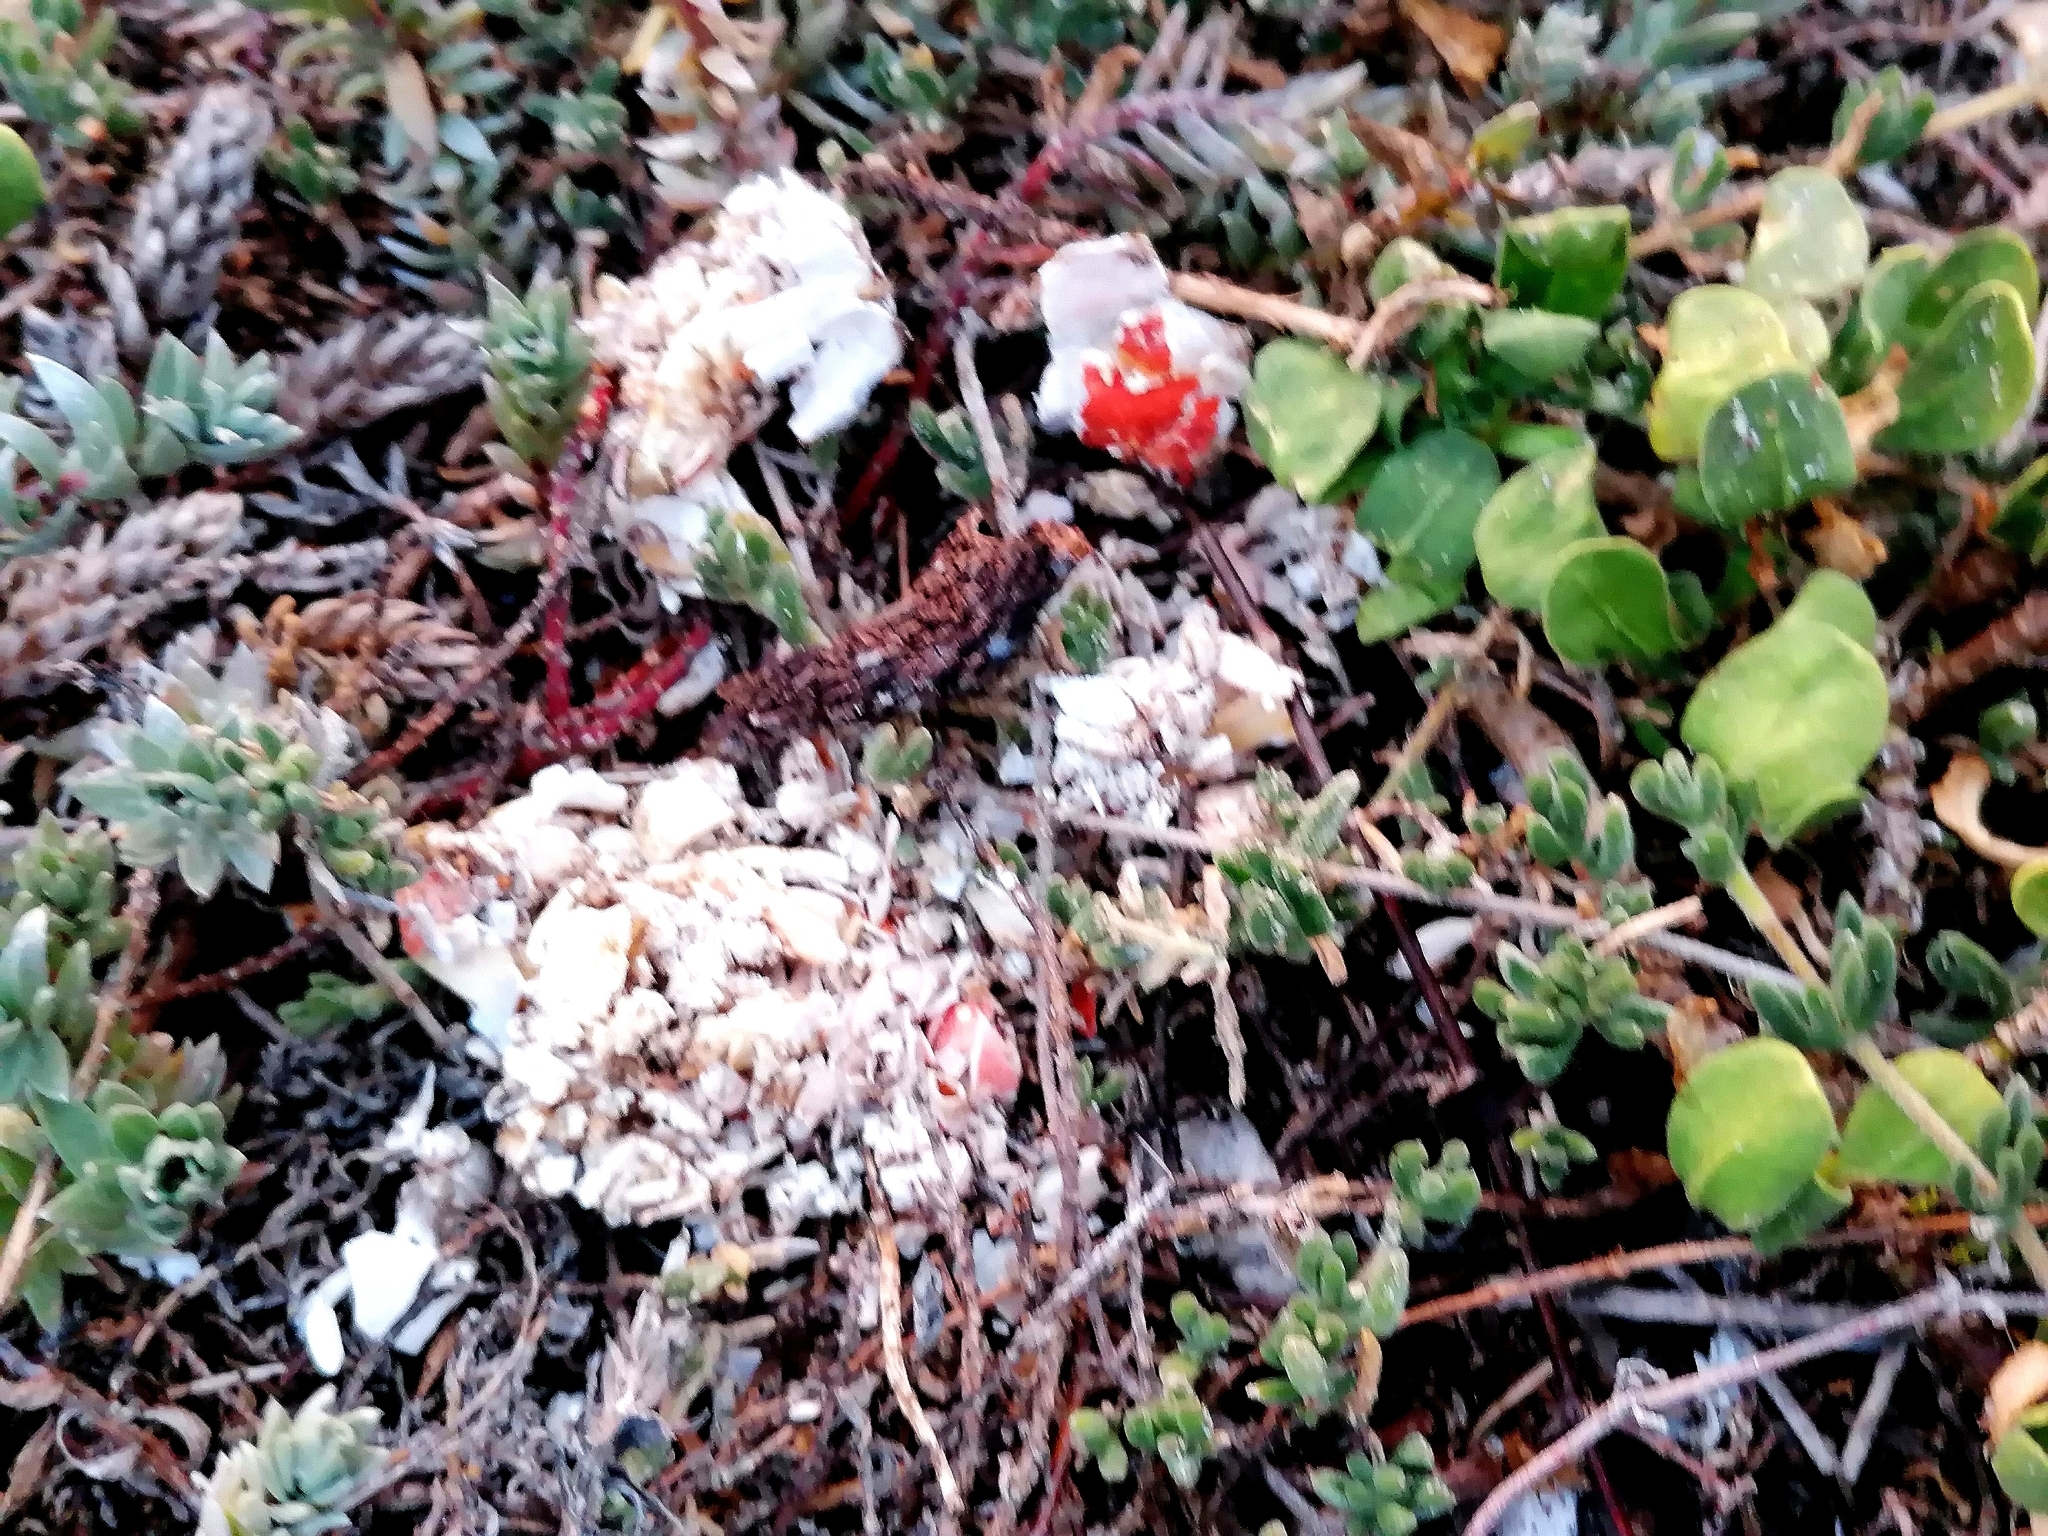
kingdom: Animalia
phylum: Chordata
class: Mammalia
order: Carnivora
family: Mustelidae
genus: Aonyx
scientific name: Aonyx capensis
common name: African clawless otter
